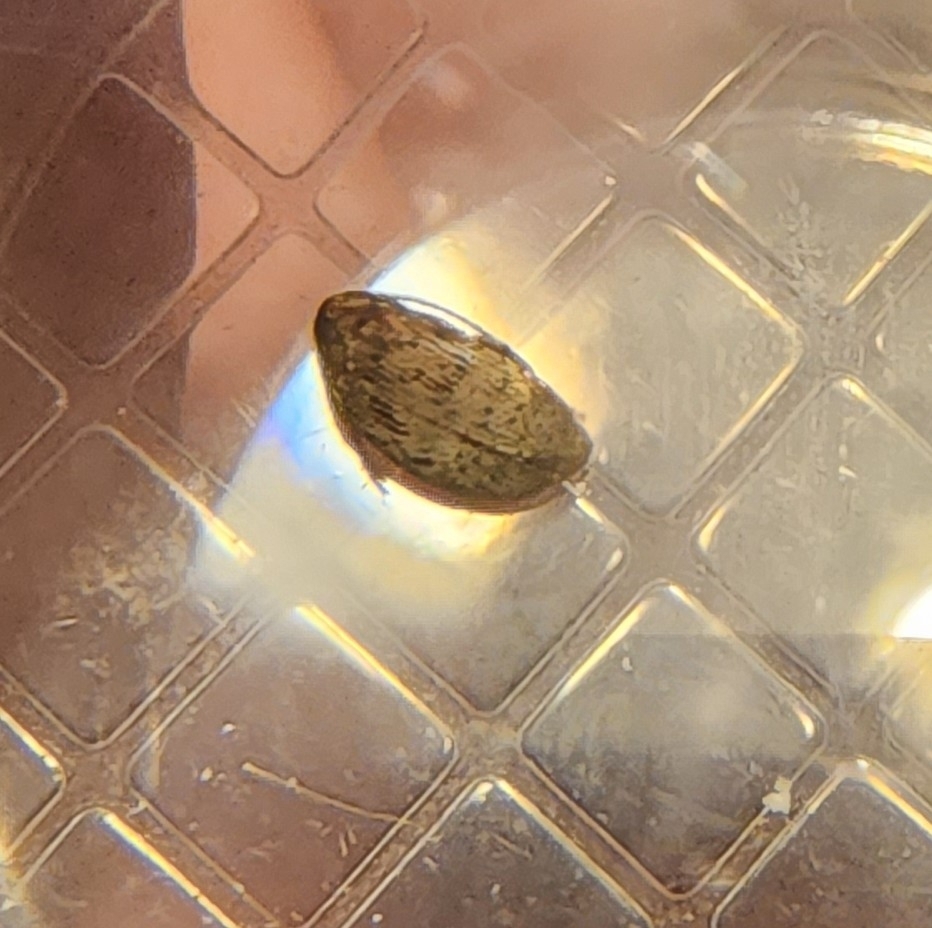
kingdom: Animalia
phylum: Arthropoda
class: Insecta
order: Coleoptera
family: Chrysomelidae
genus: Amblycerus
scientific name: Amblycerus robiniae
